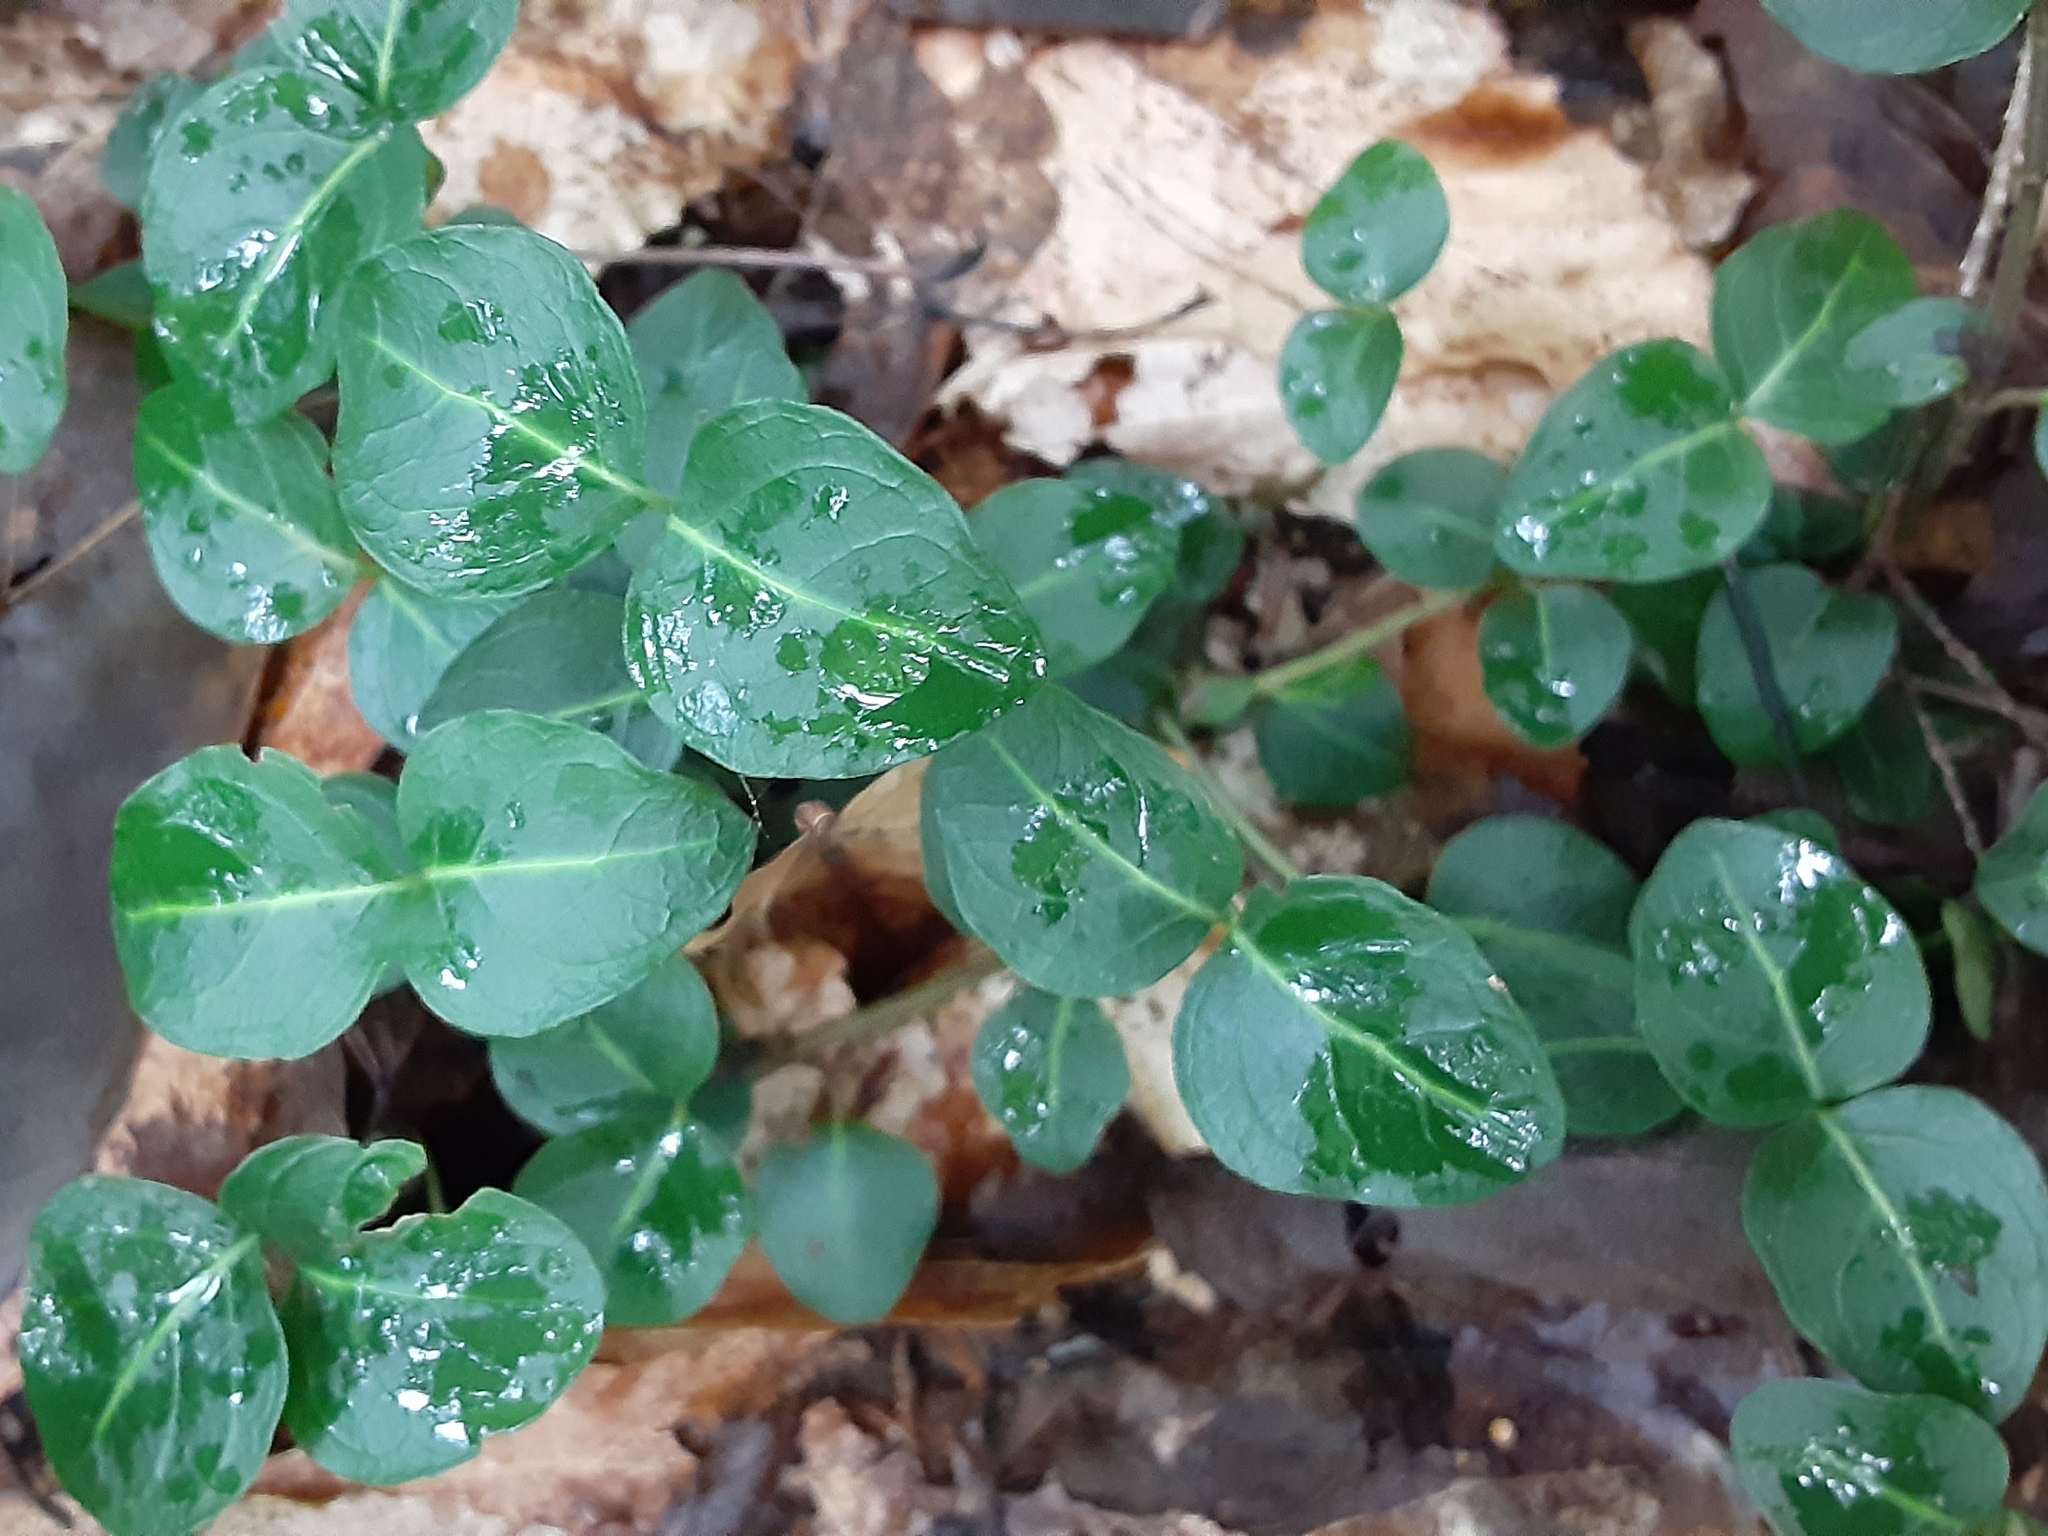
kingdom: Plantae
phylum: Tracheophyta
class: Magnoliopsida
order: Gentianales
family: Rubiaceae
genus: Mitchella
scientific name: Mitchella repens
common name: Partridge-berry
